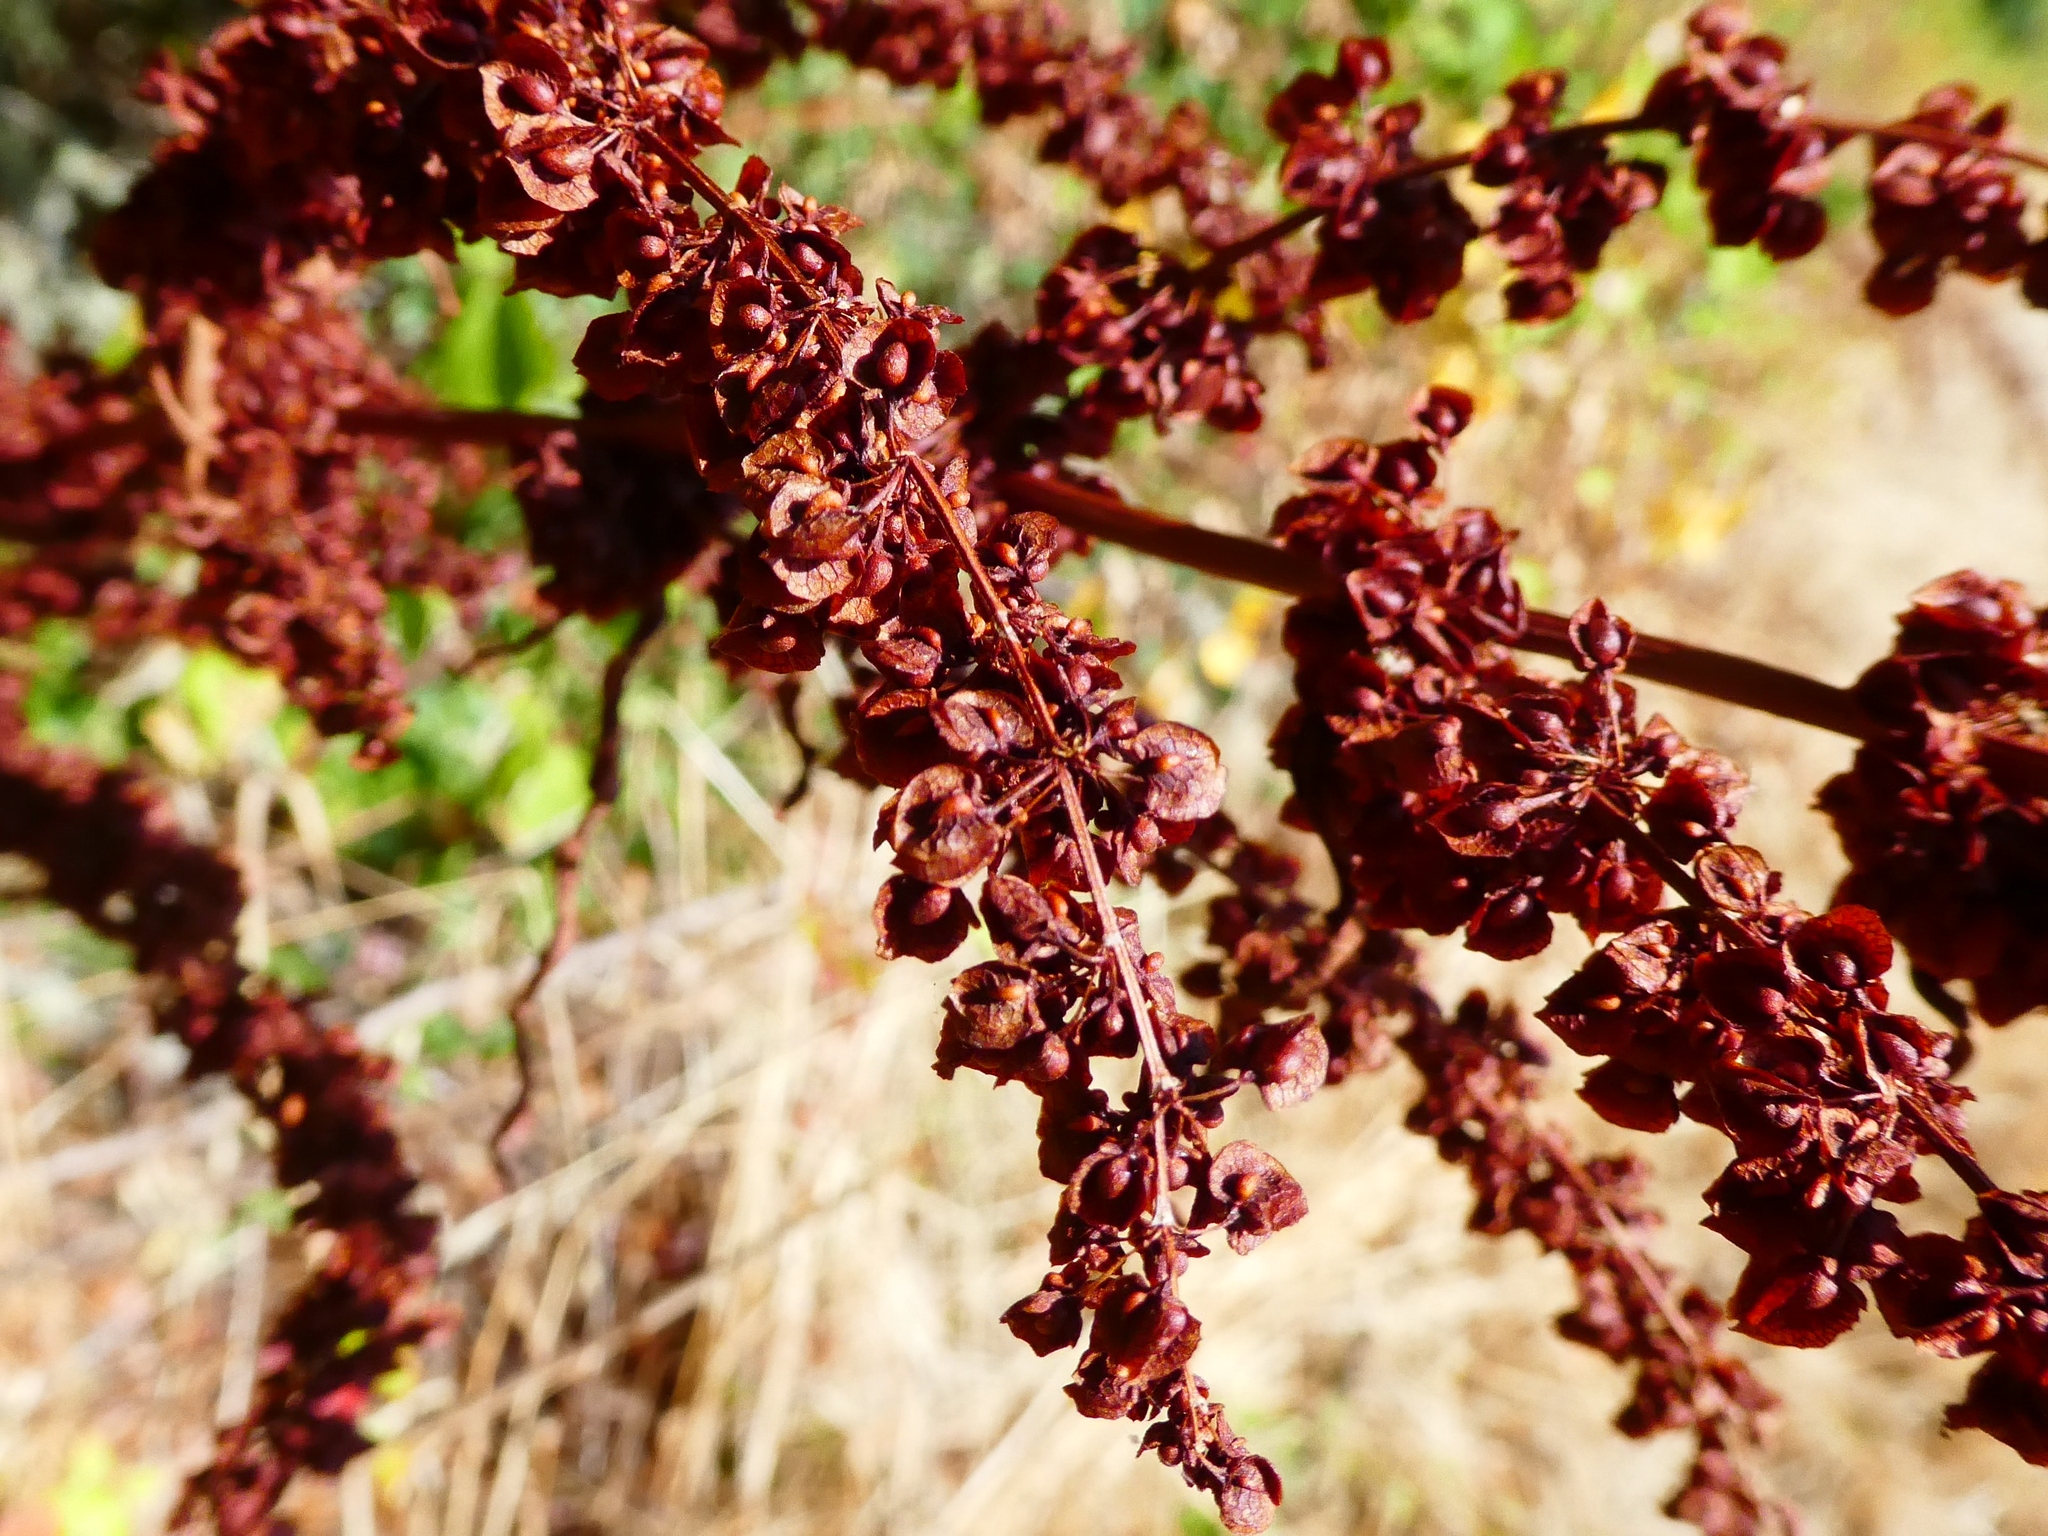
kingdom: Plantae
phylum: Tracheophyta
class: Magnoliopsida
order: Caryophyllales
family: Polygonaceae
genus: Rumex
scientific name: Rumex crispus
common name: Curled dock
